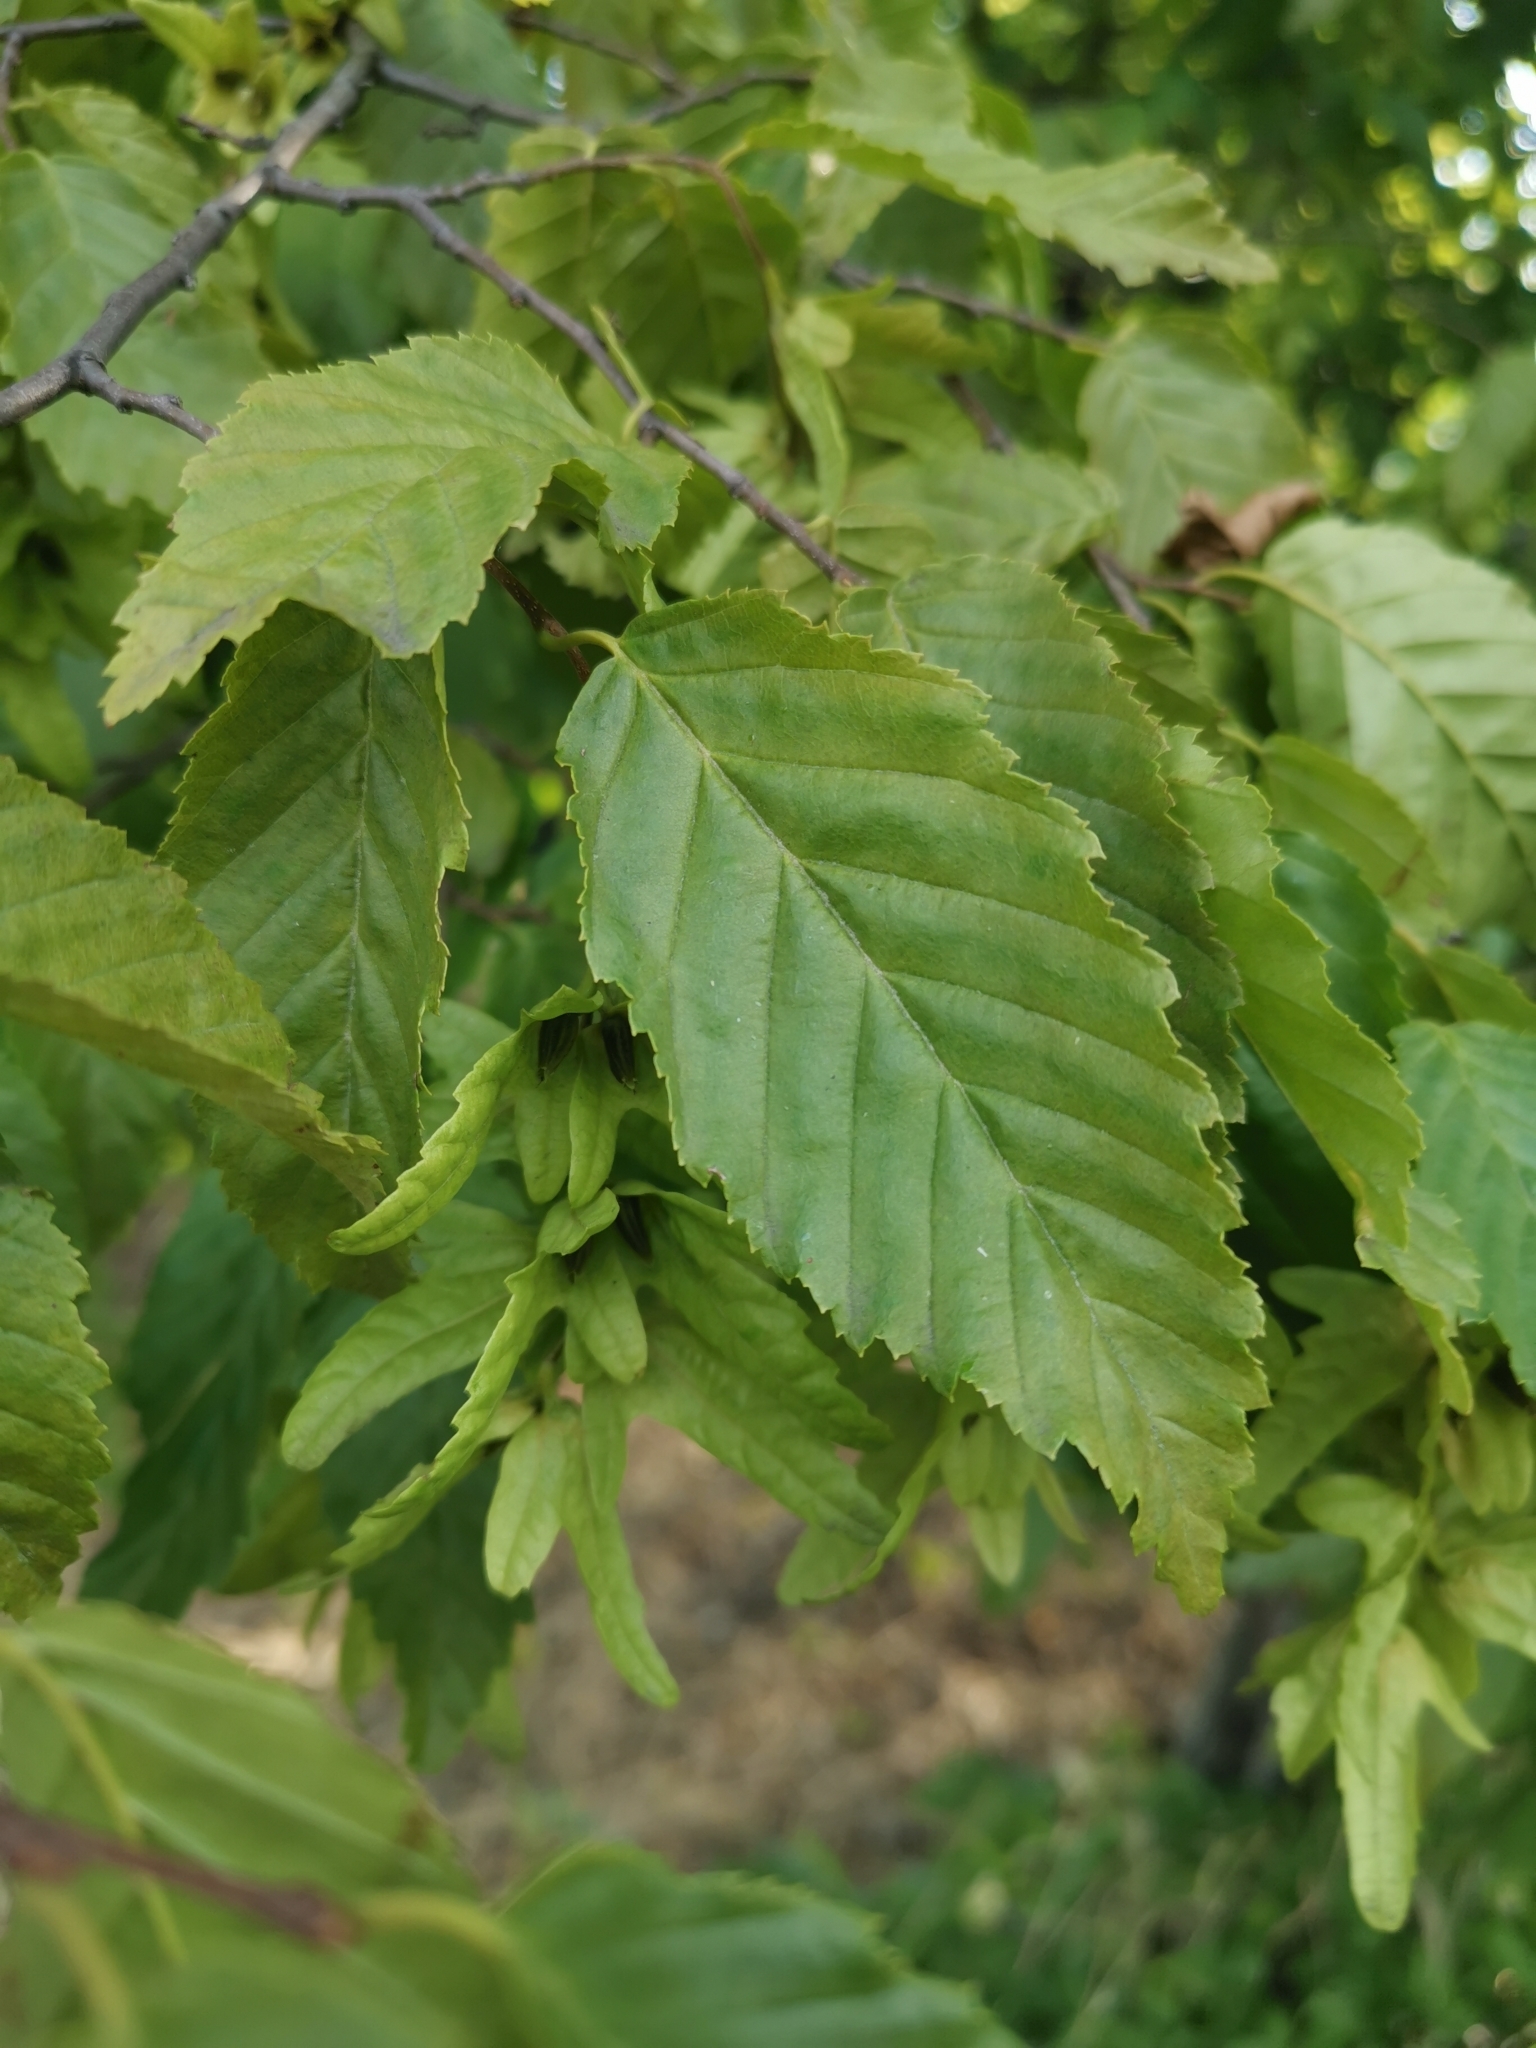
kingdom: Plantae
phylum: Tracheophyta
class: Magnoliopsida
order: Fagales
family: Betulaceae
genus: Carpinus
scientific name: Carpinus betulus
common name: Hornbeam
